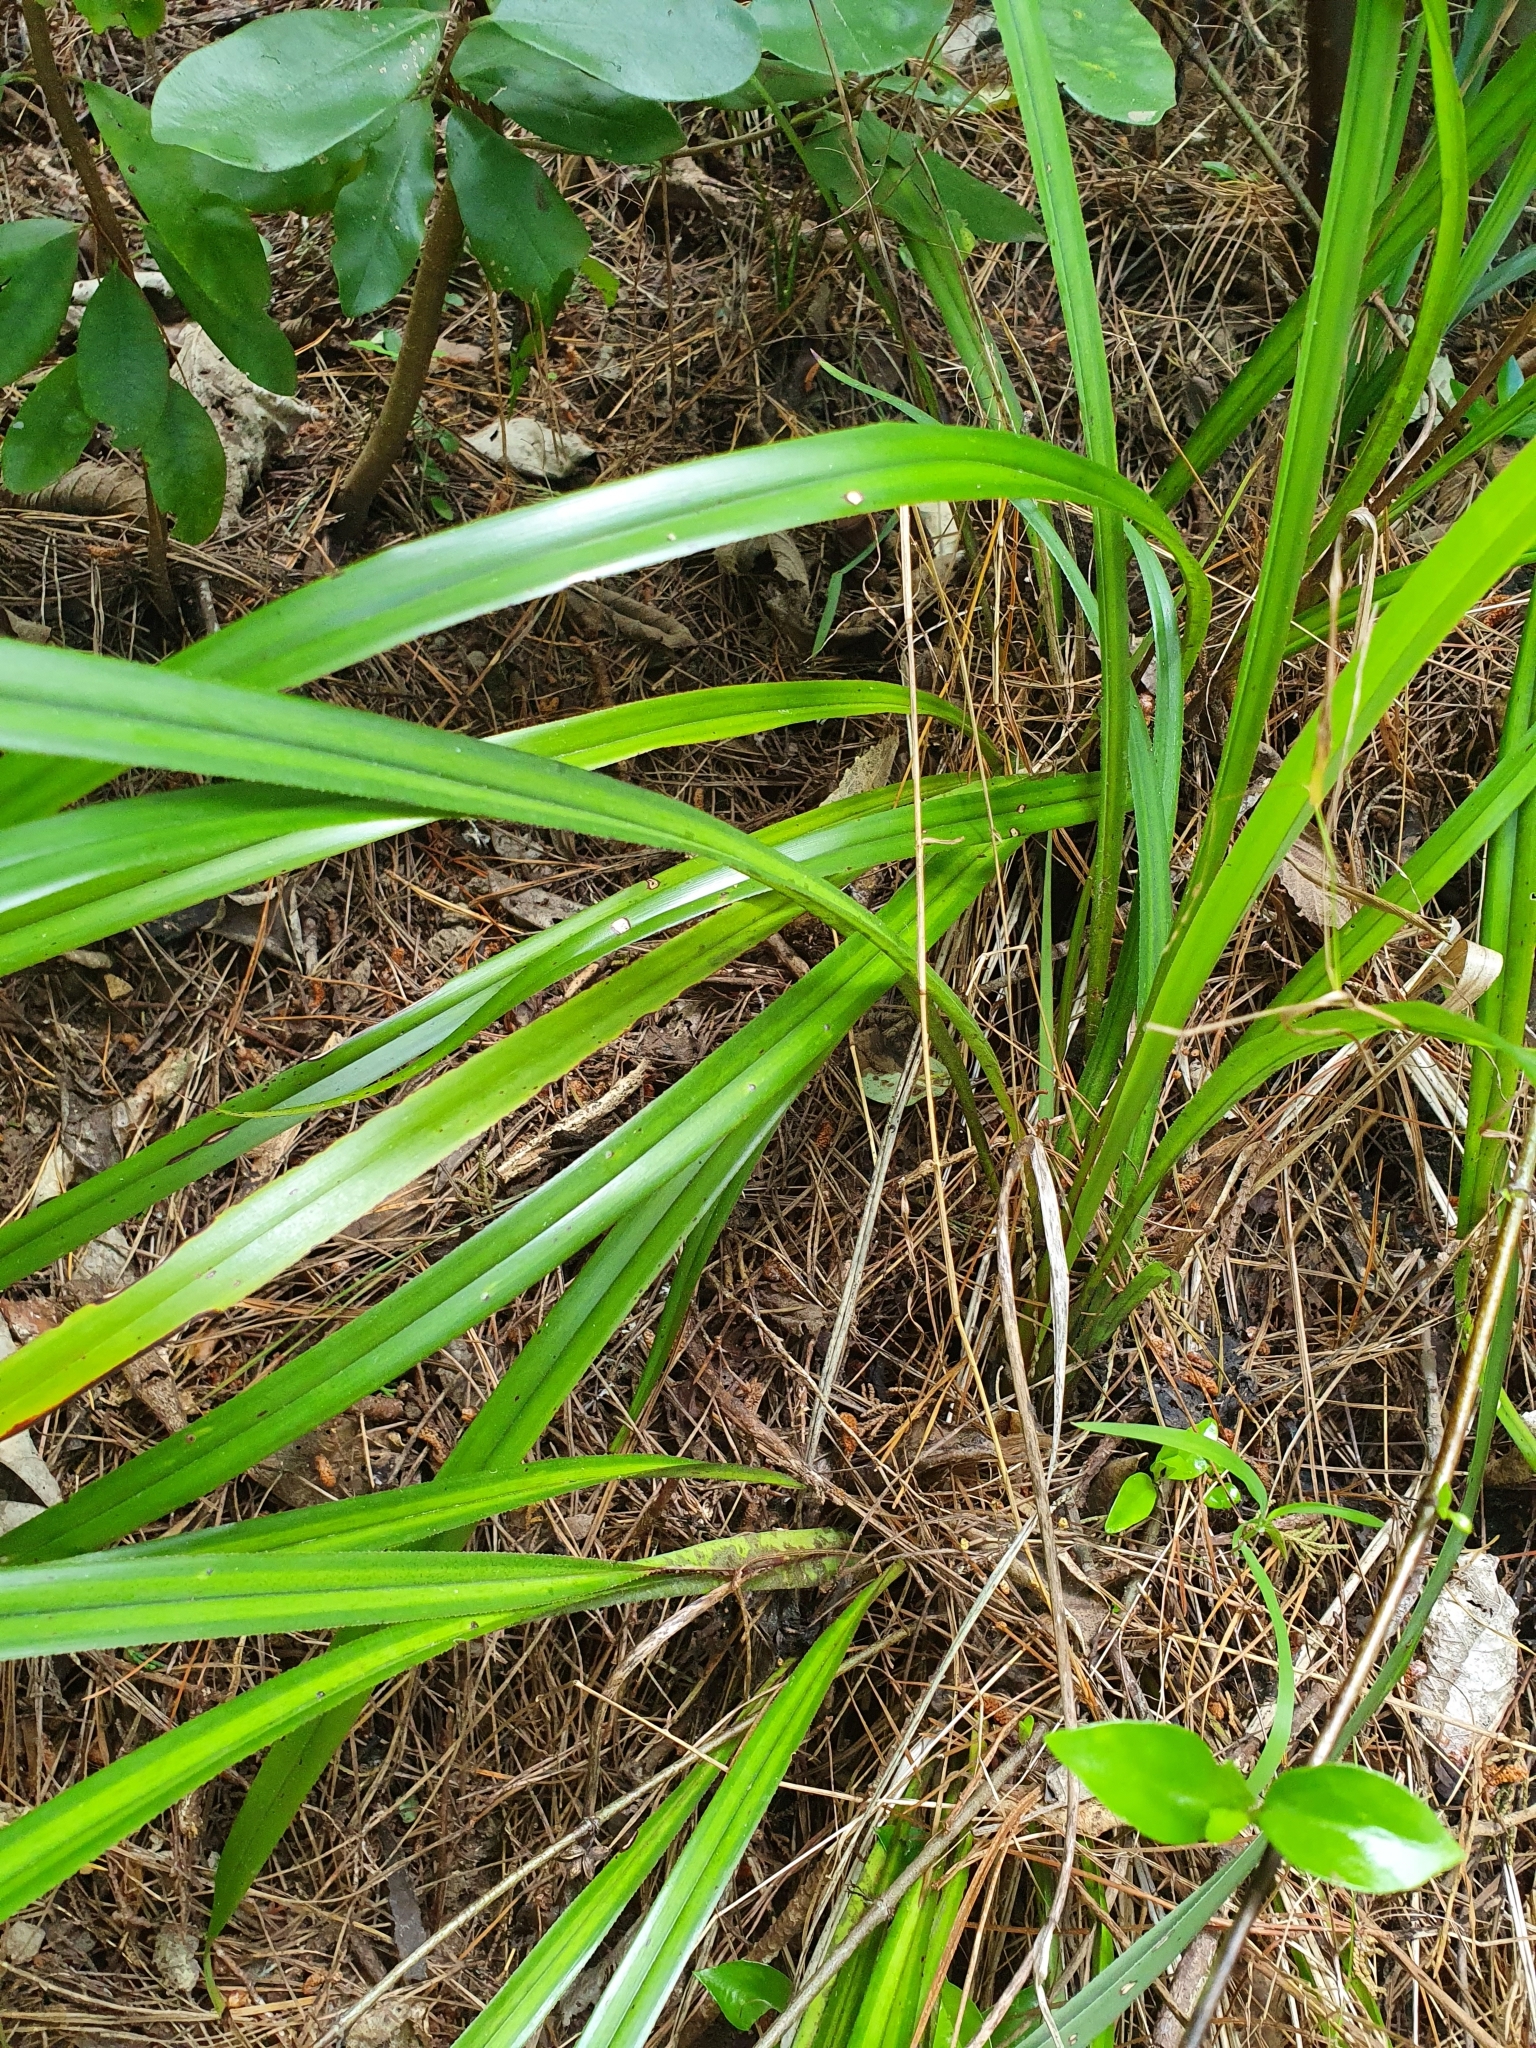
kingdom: Plantae
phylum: Tracheophyta
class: Liliopsida
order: Asparagales
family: Asphodelaceae
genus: Dianella
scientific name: Dianella nigra
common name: New zealand-blueberry
